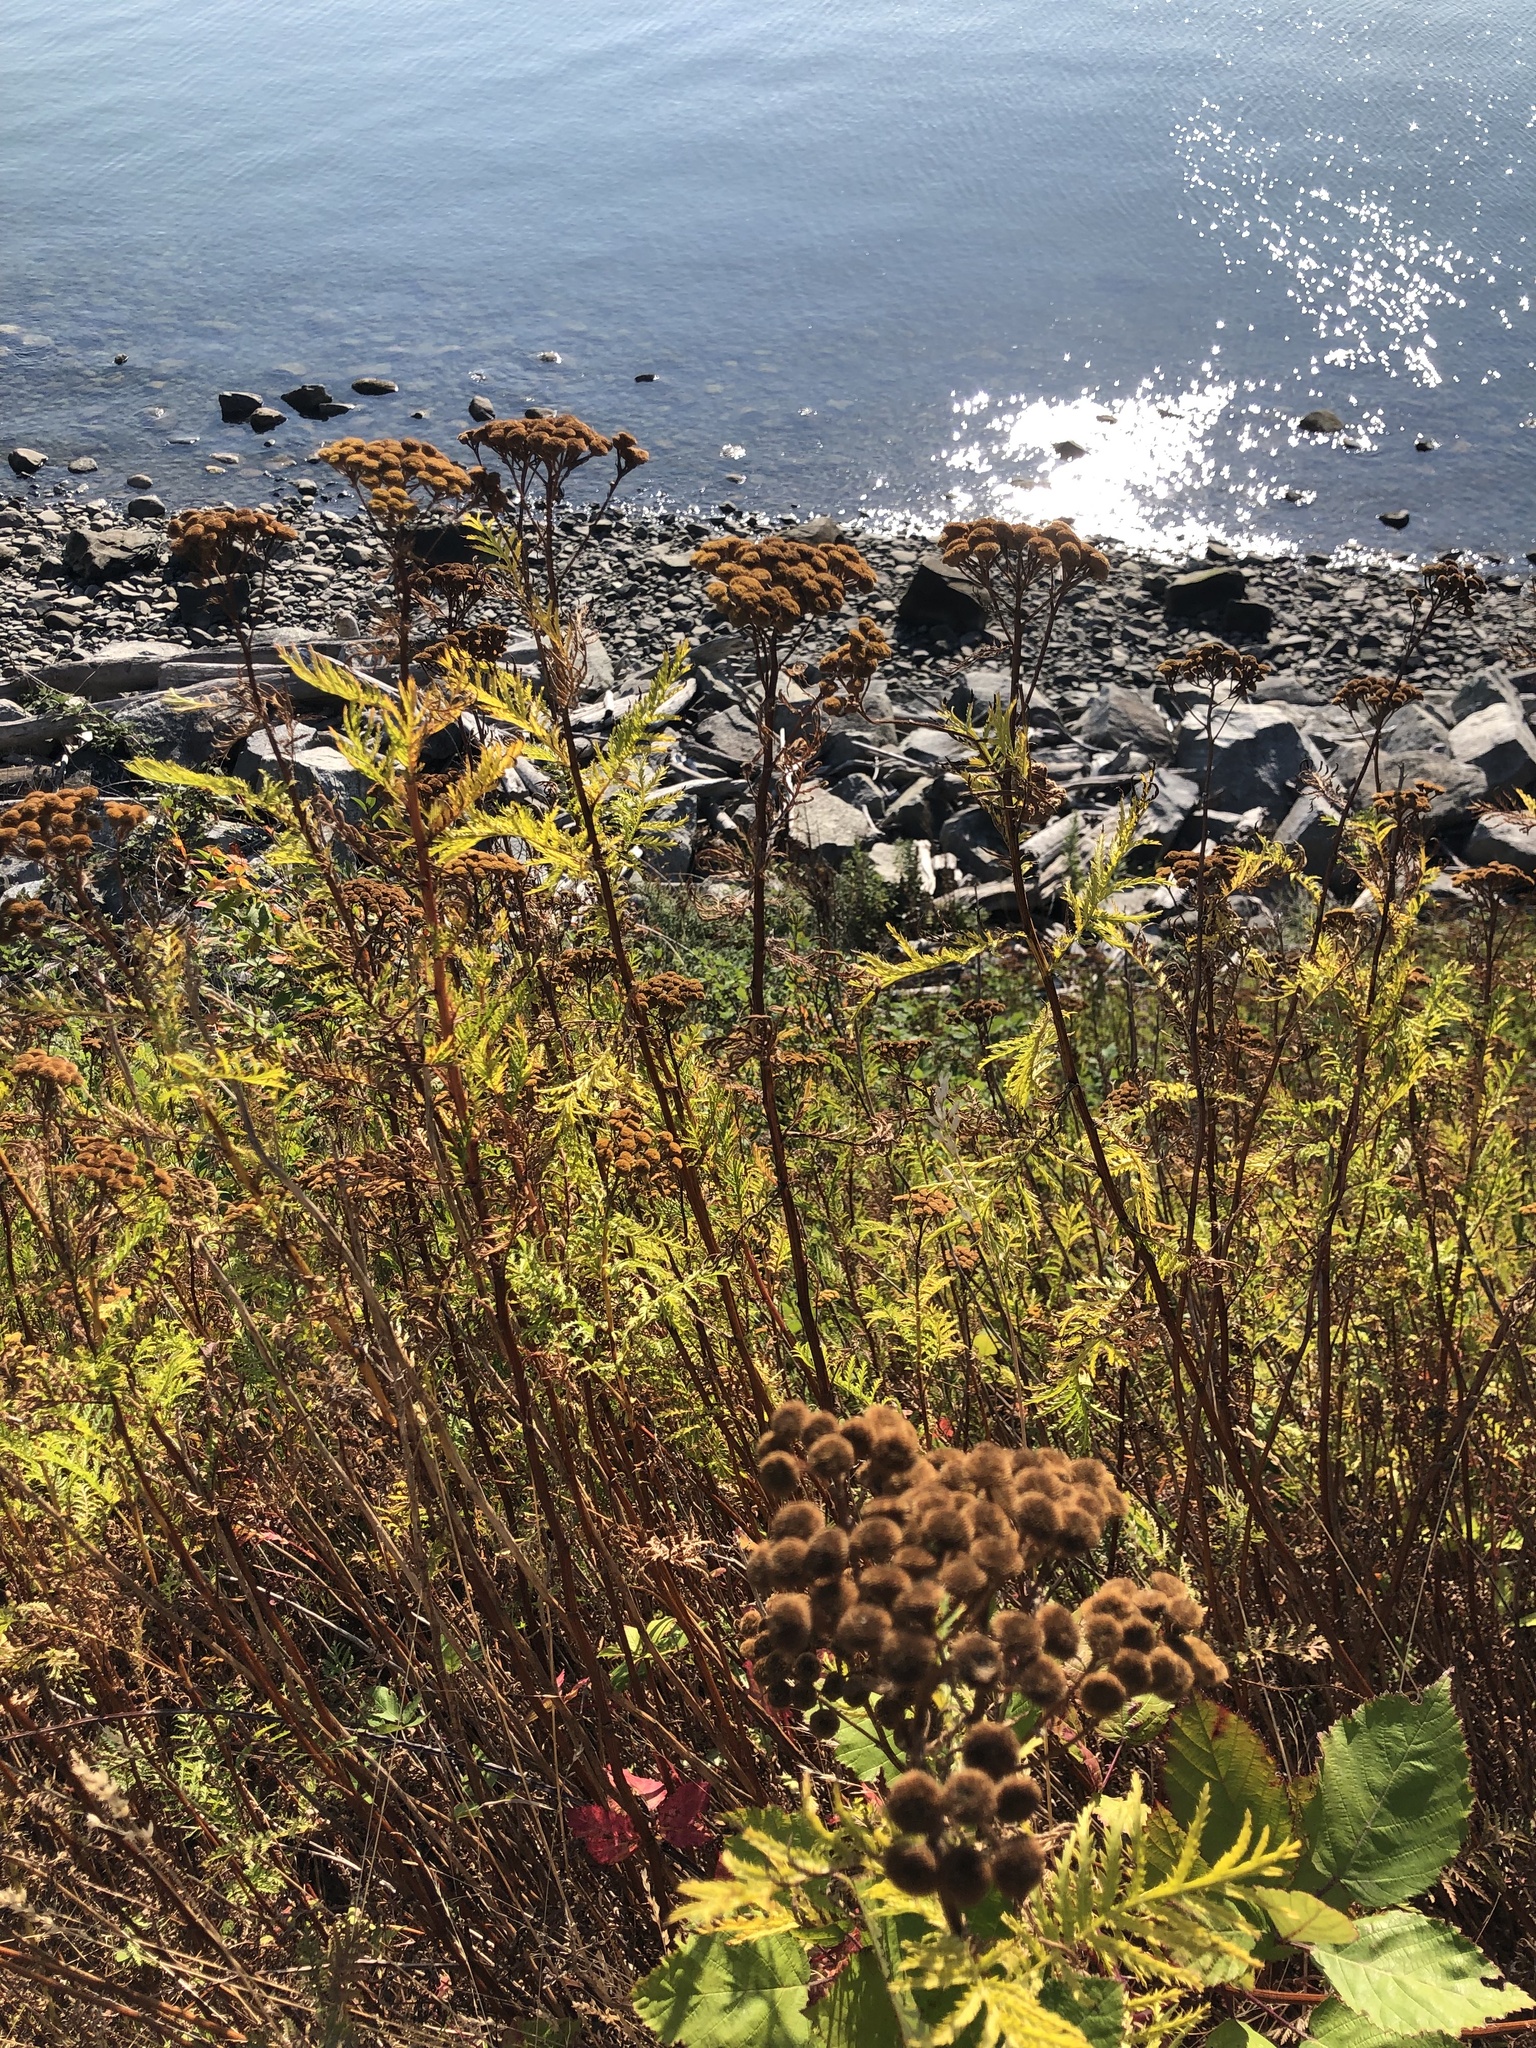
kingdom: Plantae
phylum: Tracheophyta
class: Magnoliopsida
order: Asterales
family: Asteraceae
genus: Tanacetum
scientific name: Tanacetum vulgare
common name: Common tansy
